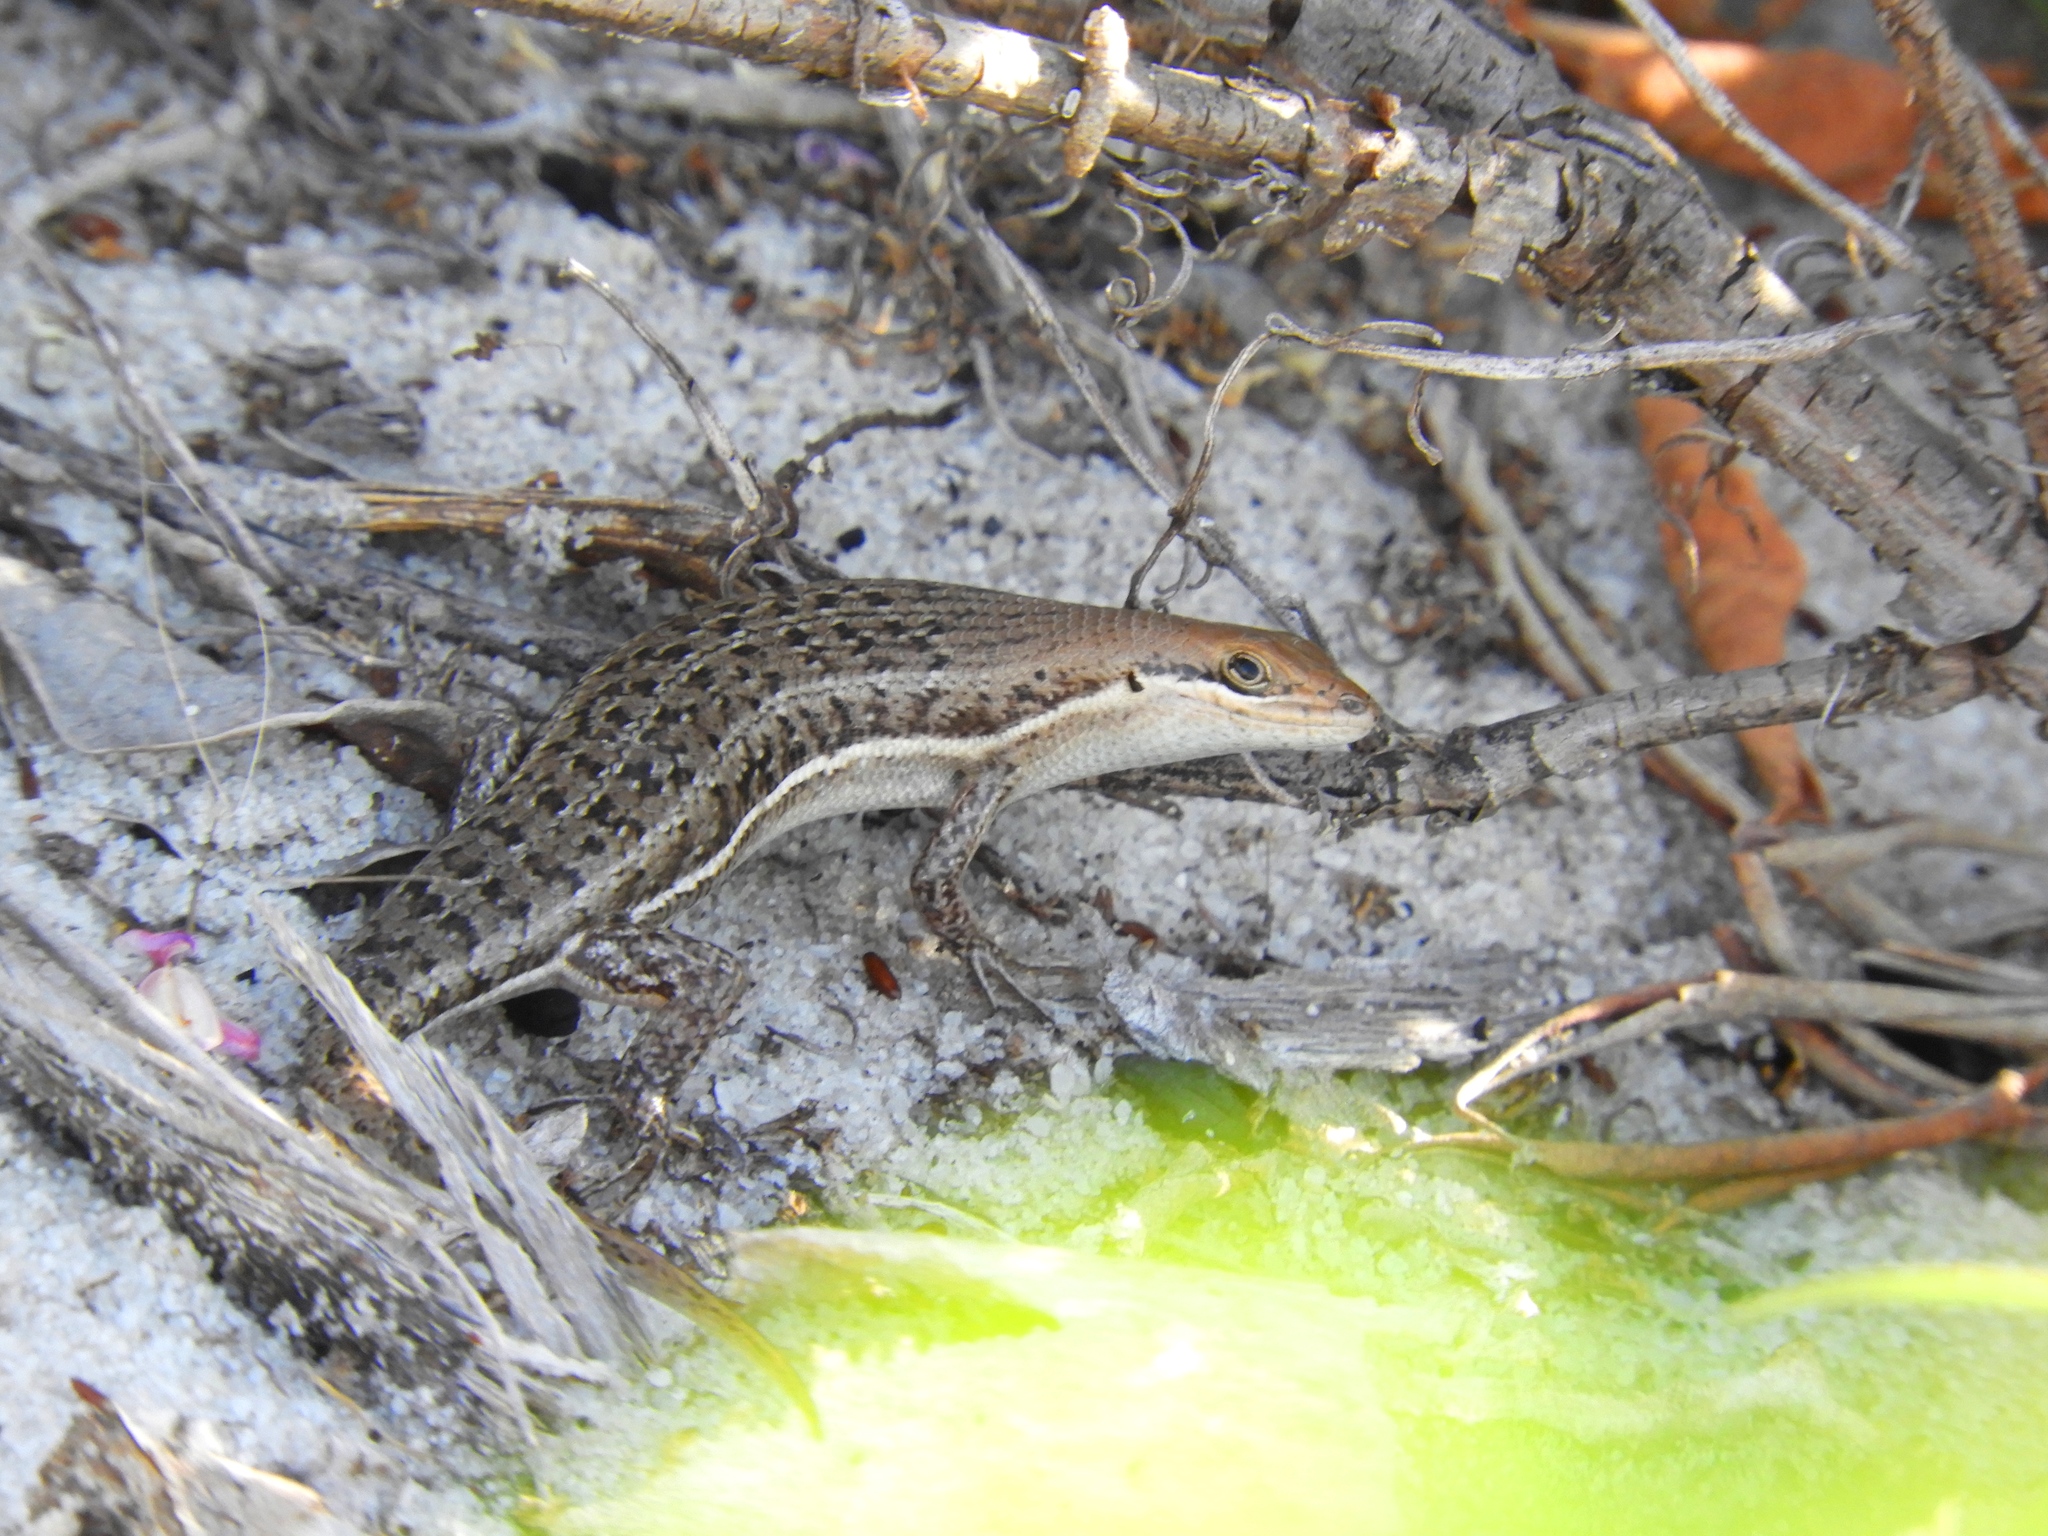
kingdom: Animalia
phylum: Chordata
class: Squamata
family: Scincidae
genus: Trachylepis
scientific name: Trachylepis varia
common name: Eastern variable skink
